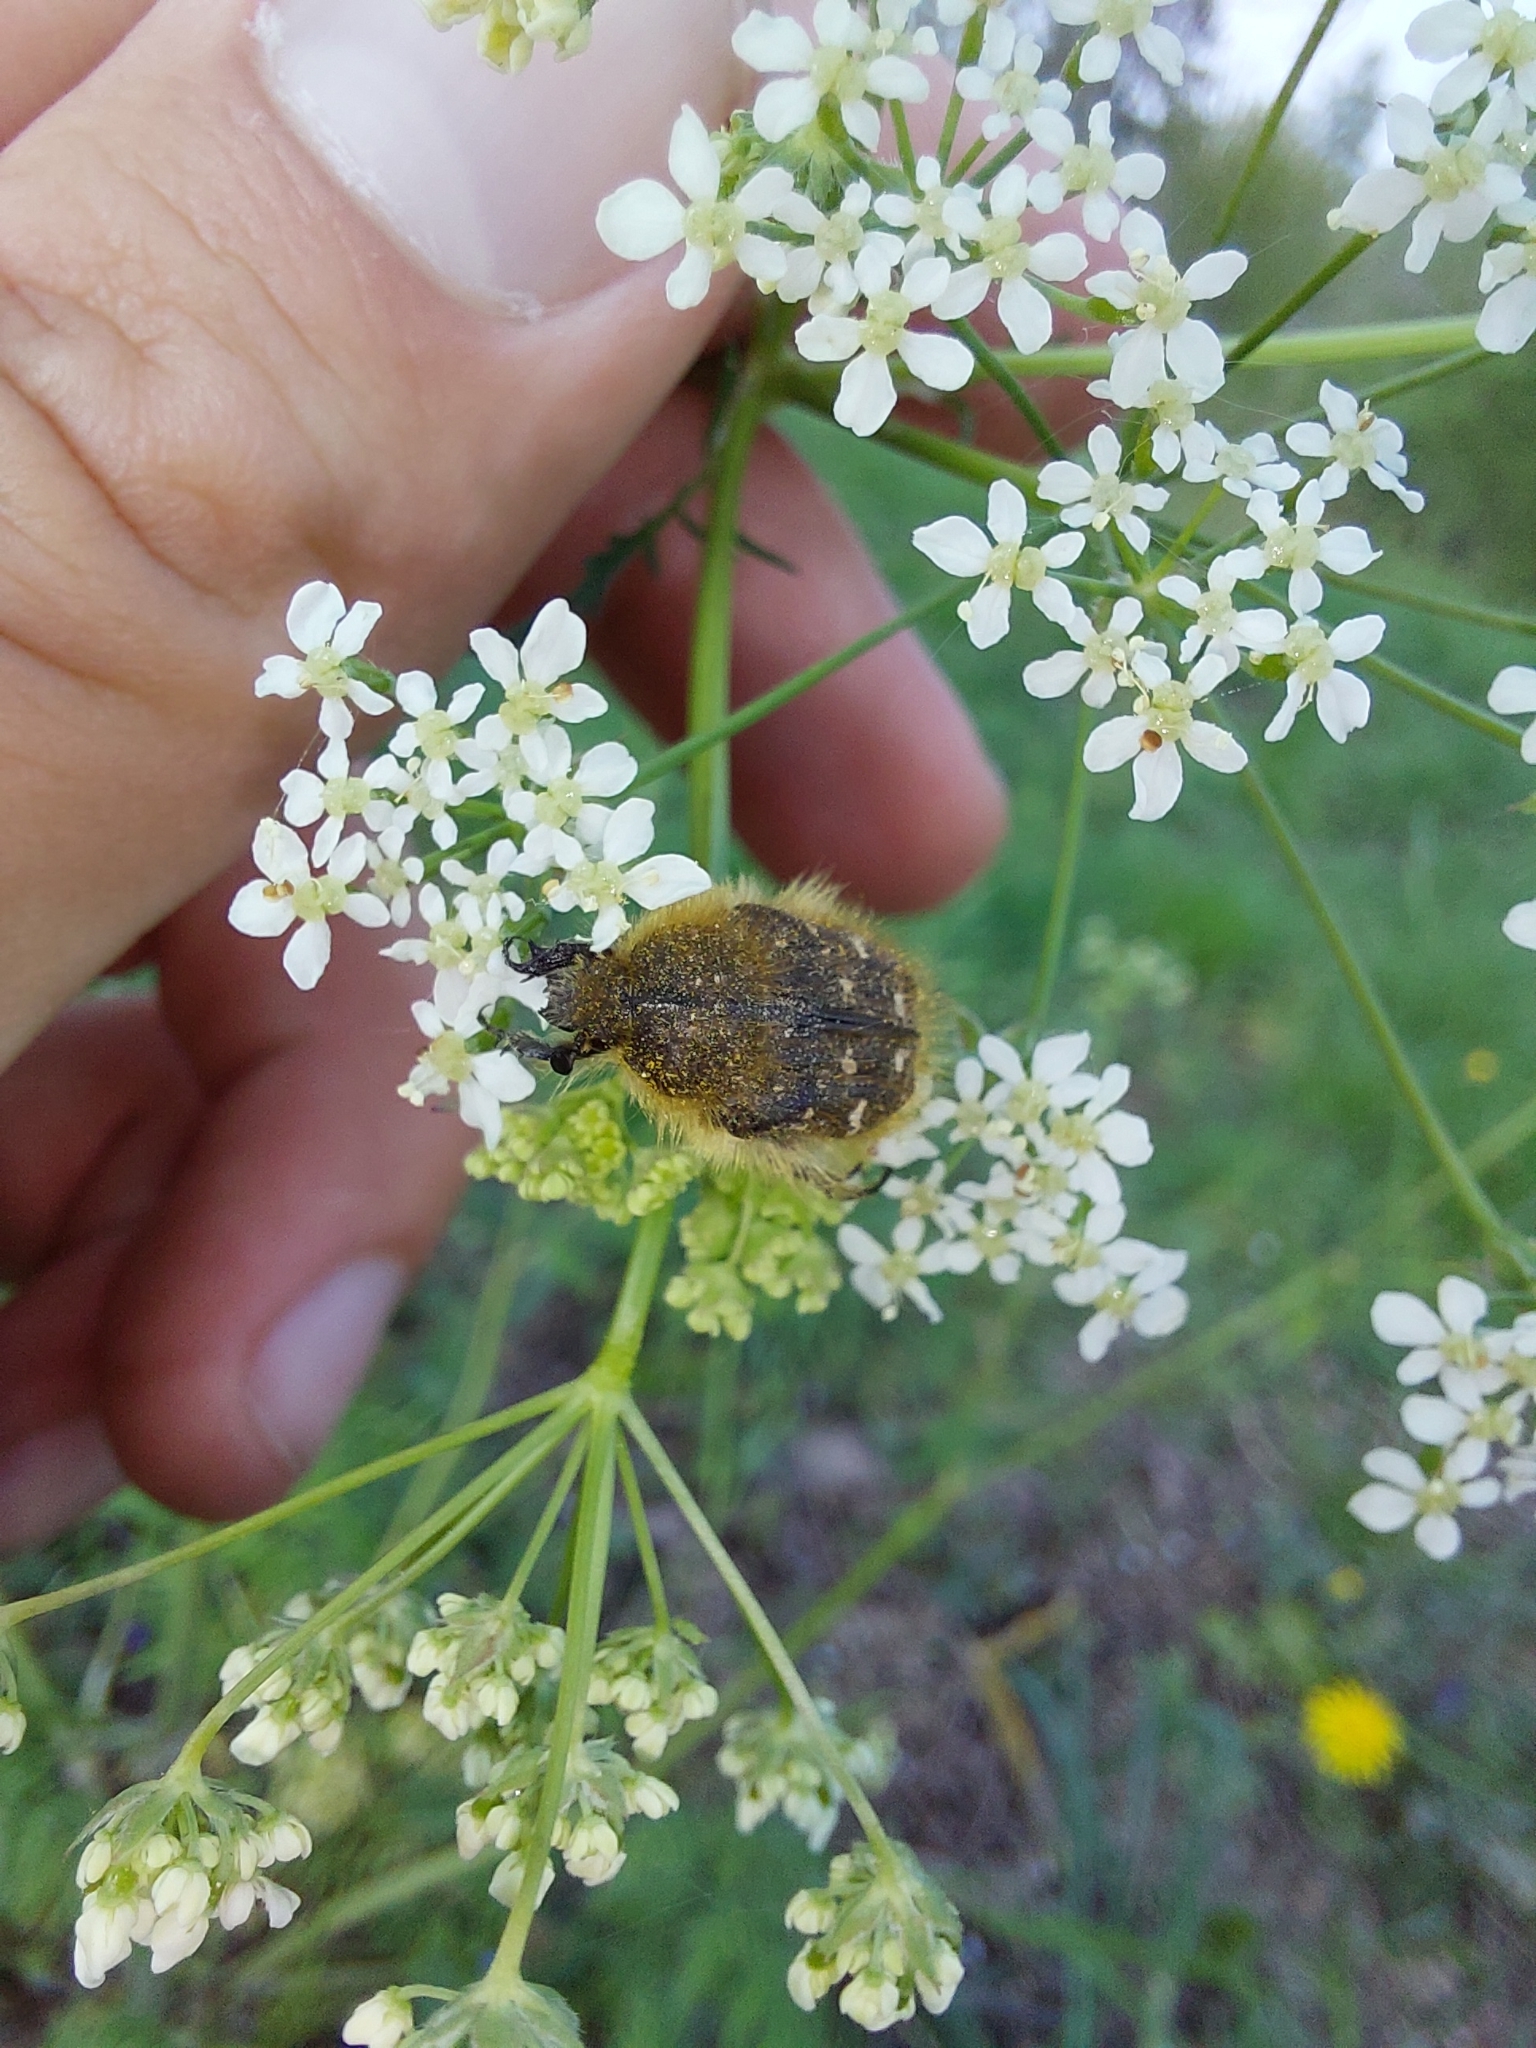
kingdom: Animalia
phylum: Arthropoda
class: Insecta
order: Coleoptera
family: Scarabaeidae
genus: Tropinota
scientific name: Tropinota hirta
